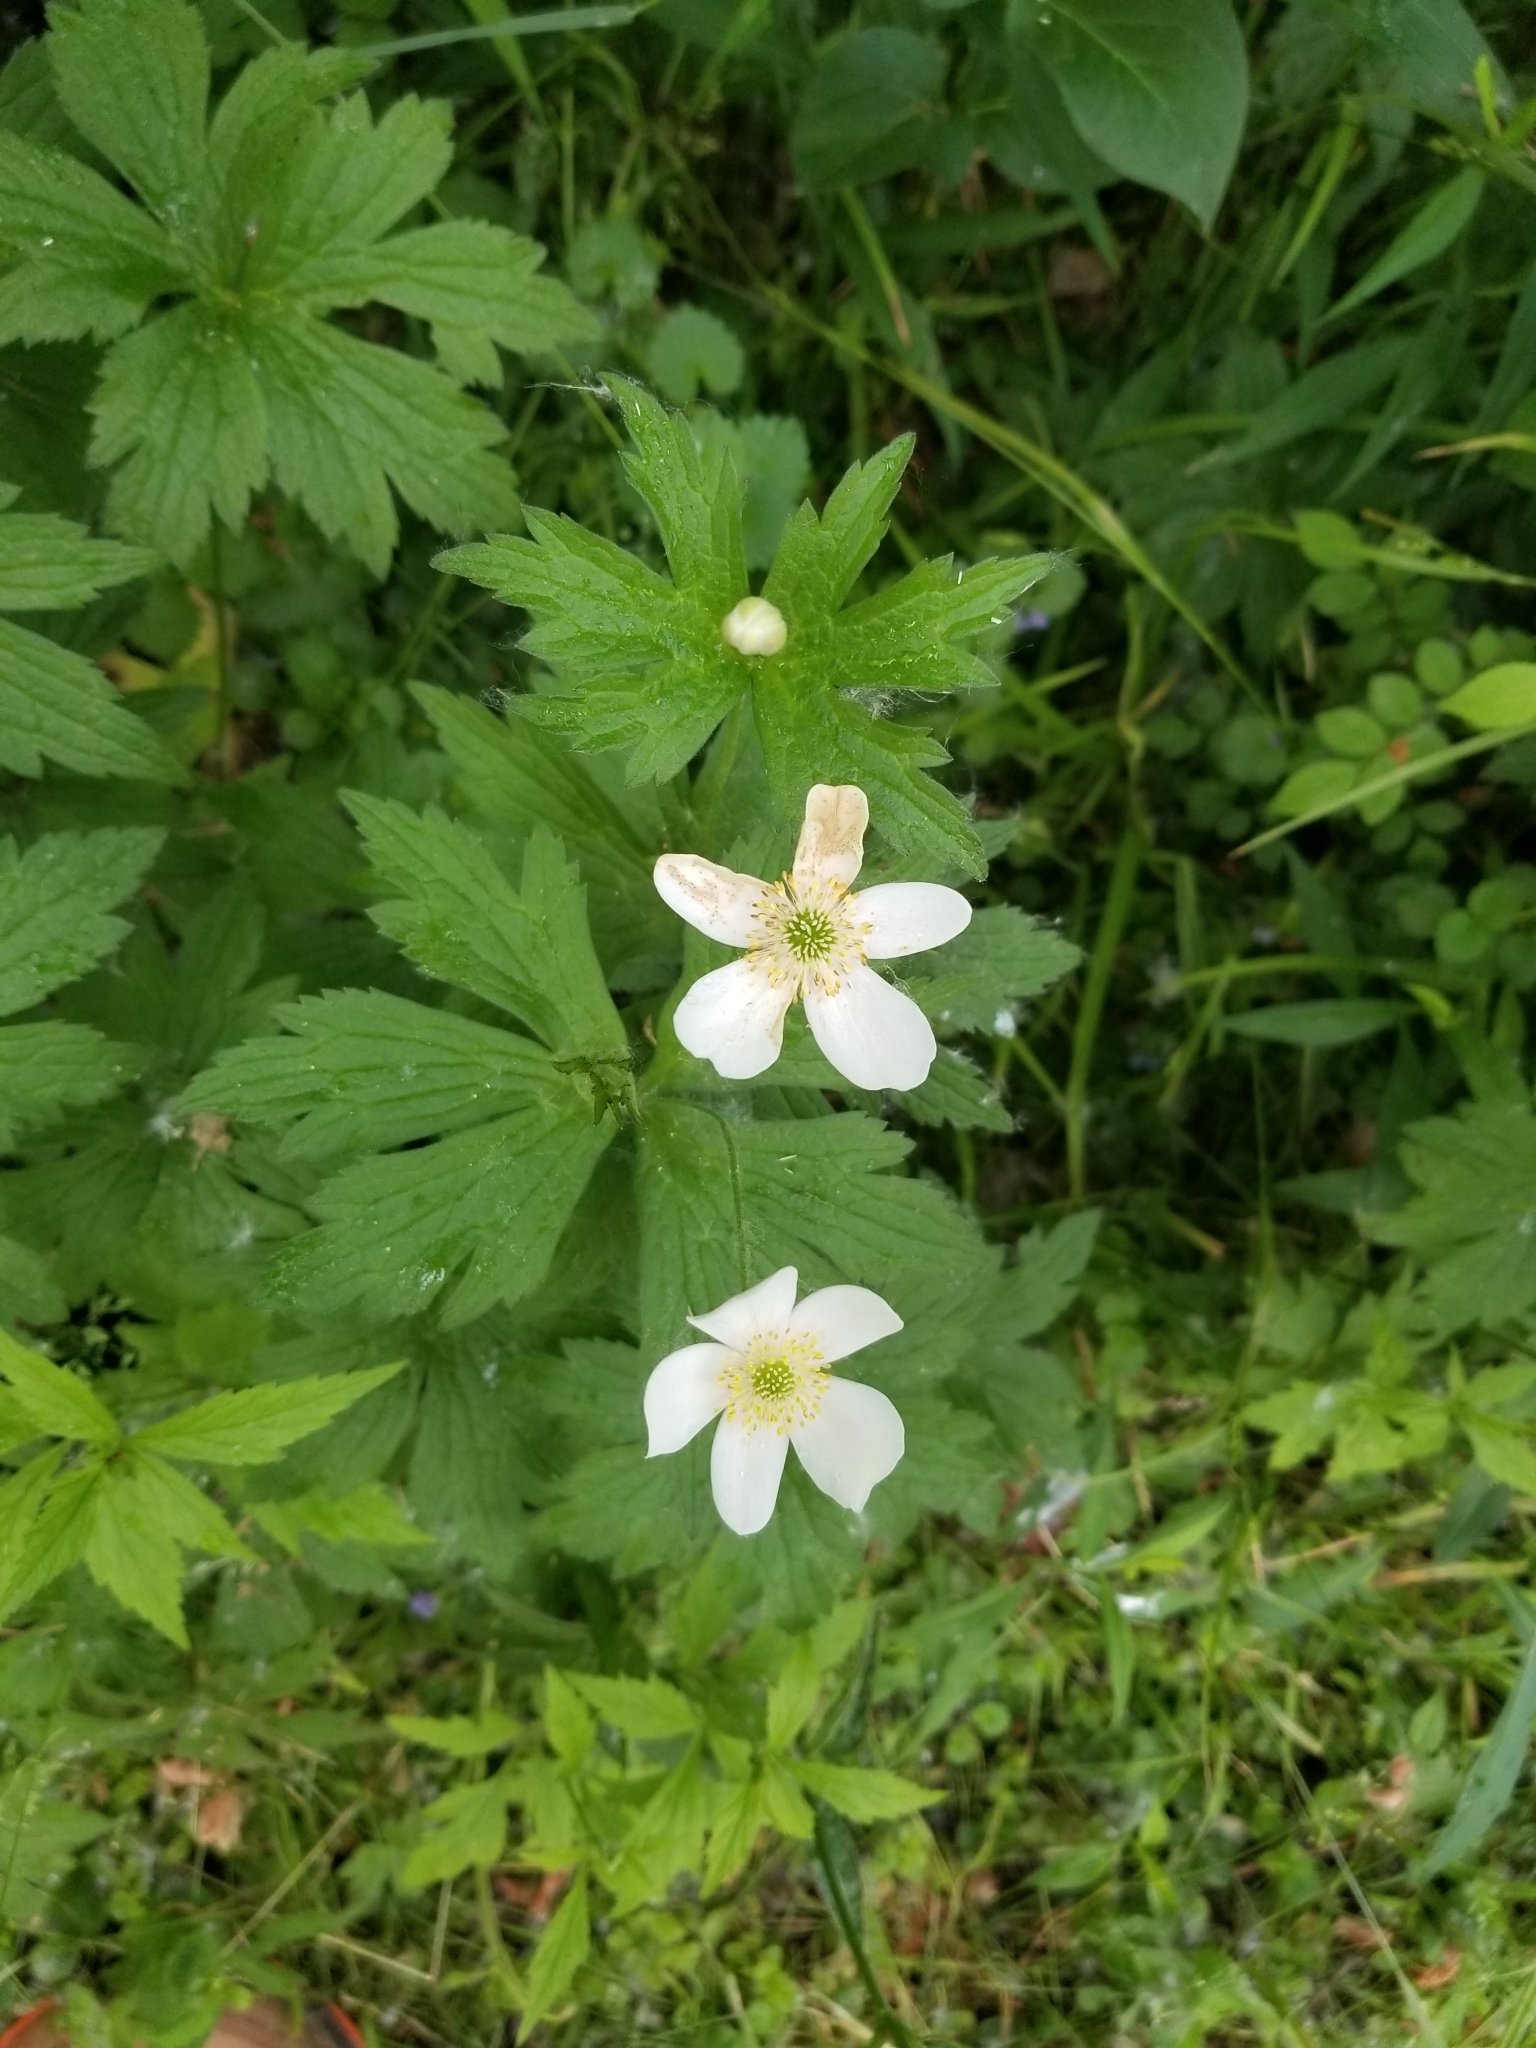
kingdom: Plantae
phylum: Tracheophyta
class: Magnoliopsida
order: Ranunculales
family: Ranunculaceae
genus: Anemonastrum
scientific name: Anemonastrum canadense
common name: Canada anemone
